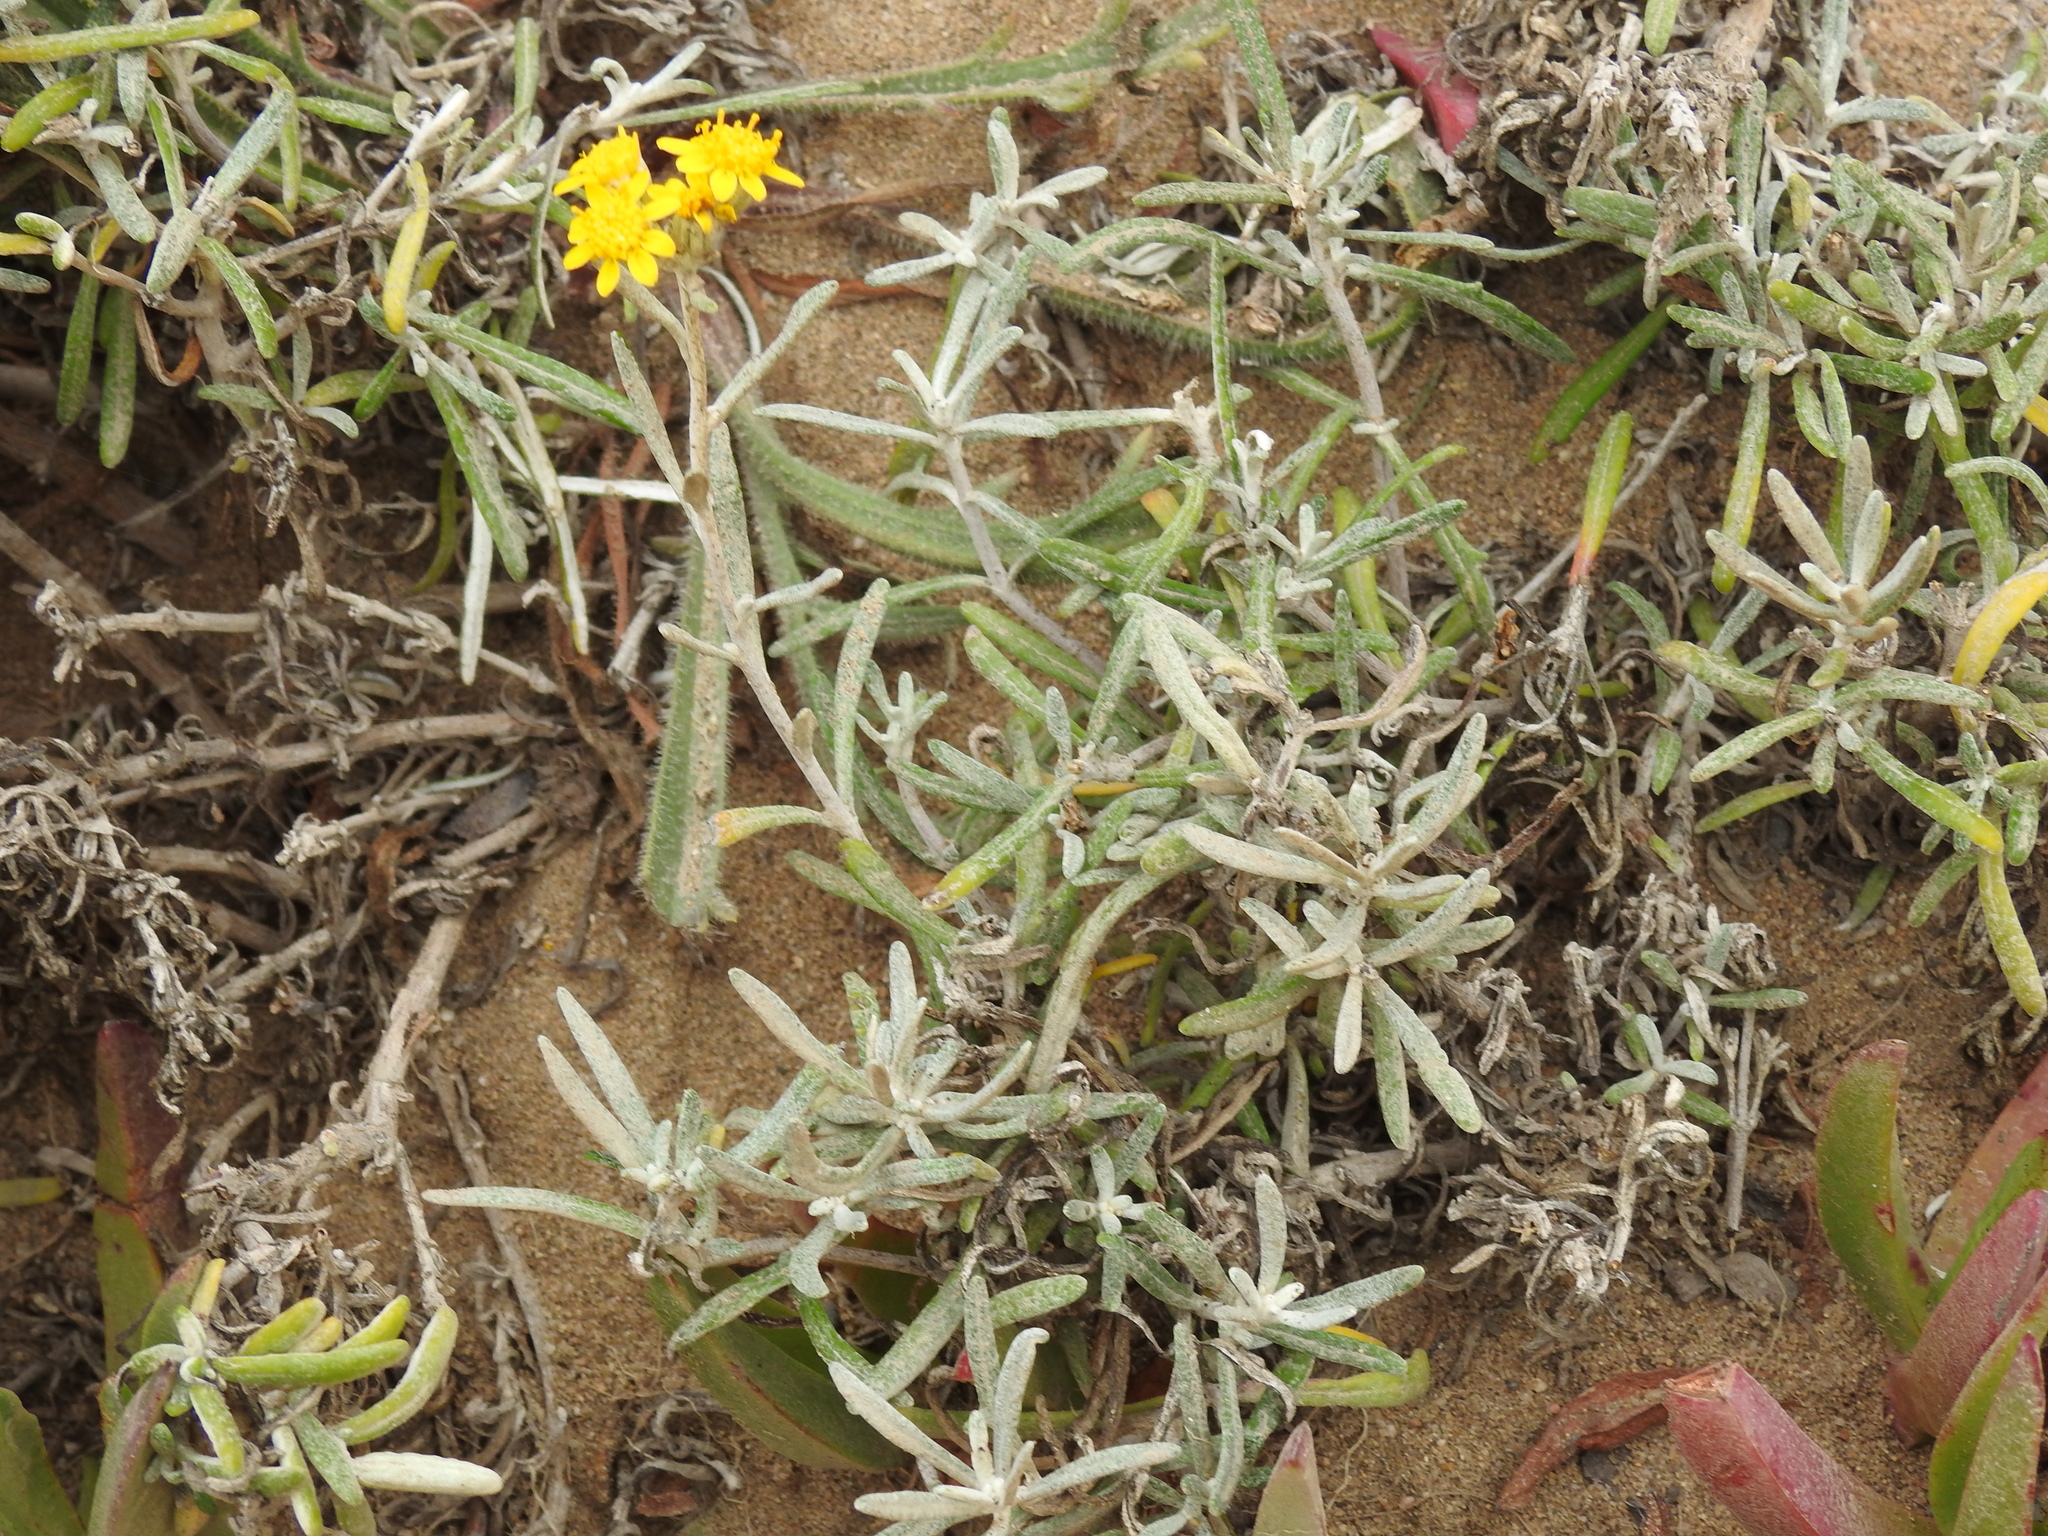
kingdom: Plantae
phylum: Tracheophyta
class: Magnoliopsida
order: Asterales
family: Asteraceae
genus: Eriophyllum
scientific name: Eriophyllum staechadifolium
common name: Lizardtail
